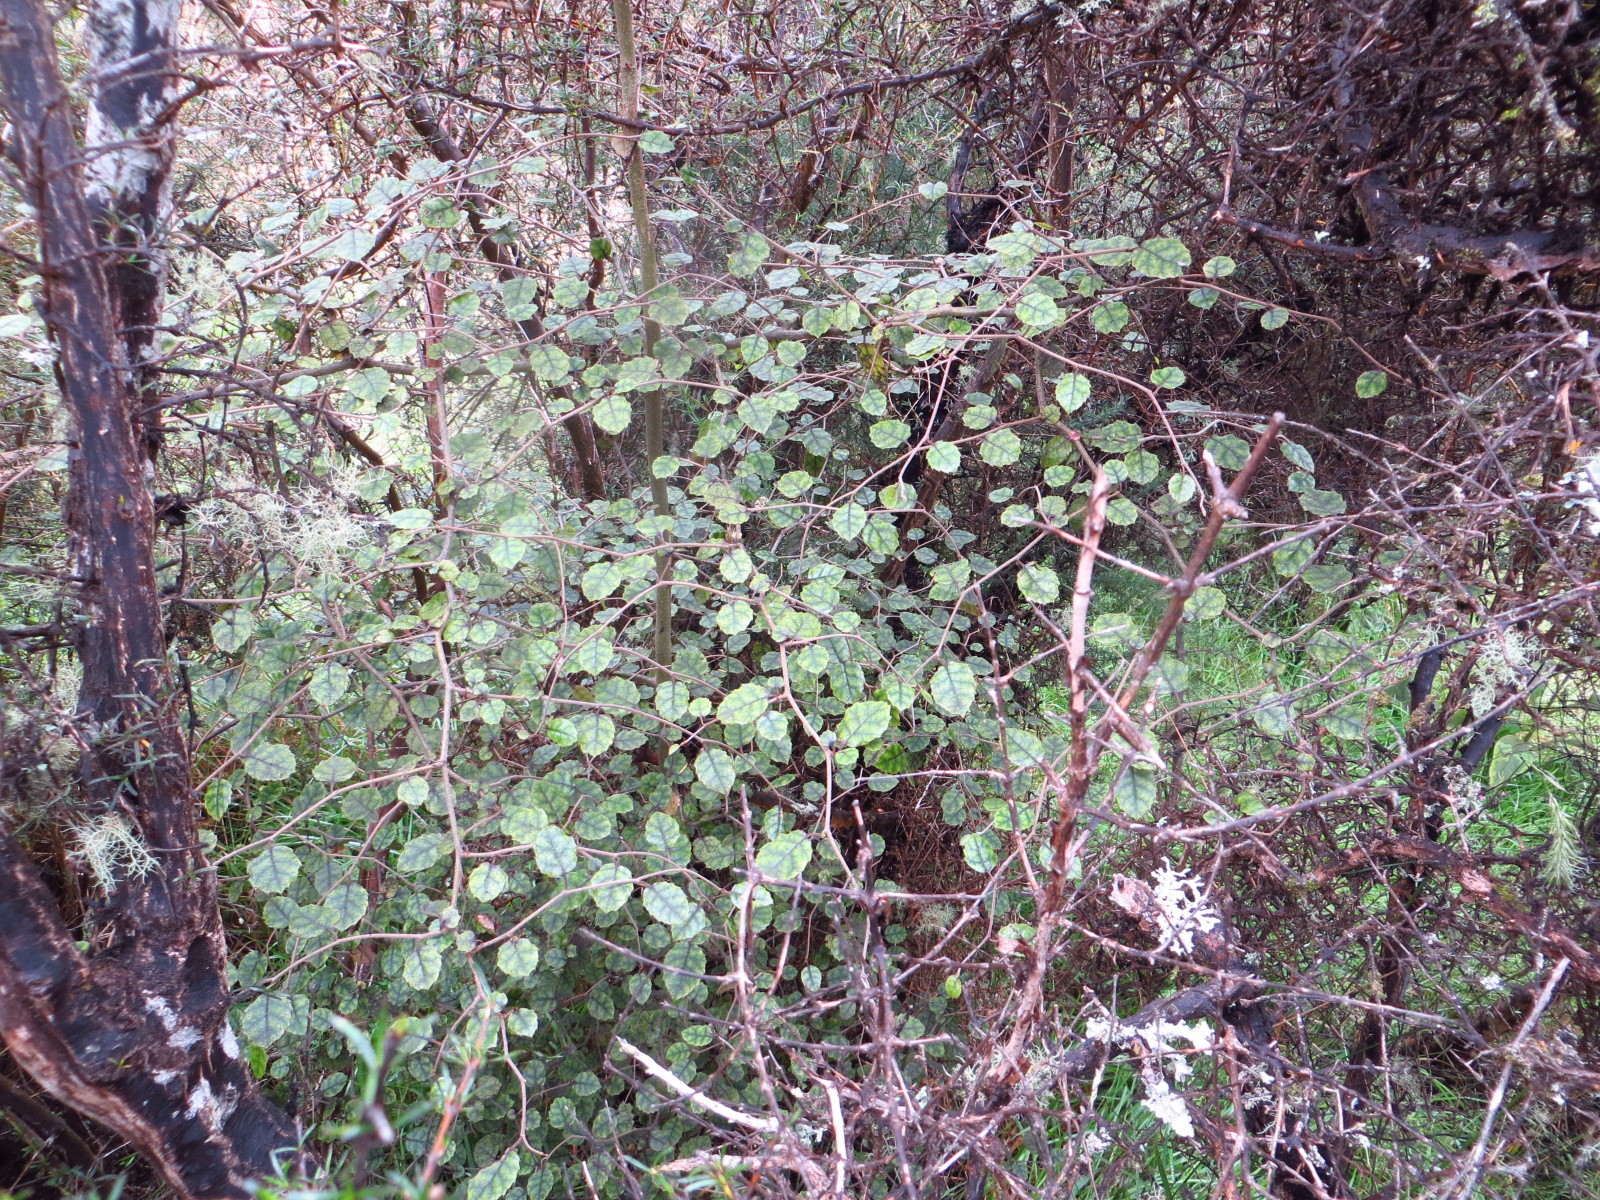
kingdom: Plantae
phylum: Tracheophyta
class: Magnoliopsida
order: Asterales
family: Rousseaceae
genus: Carpodetus
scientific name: Carpodetus serratus
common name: White mapau
